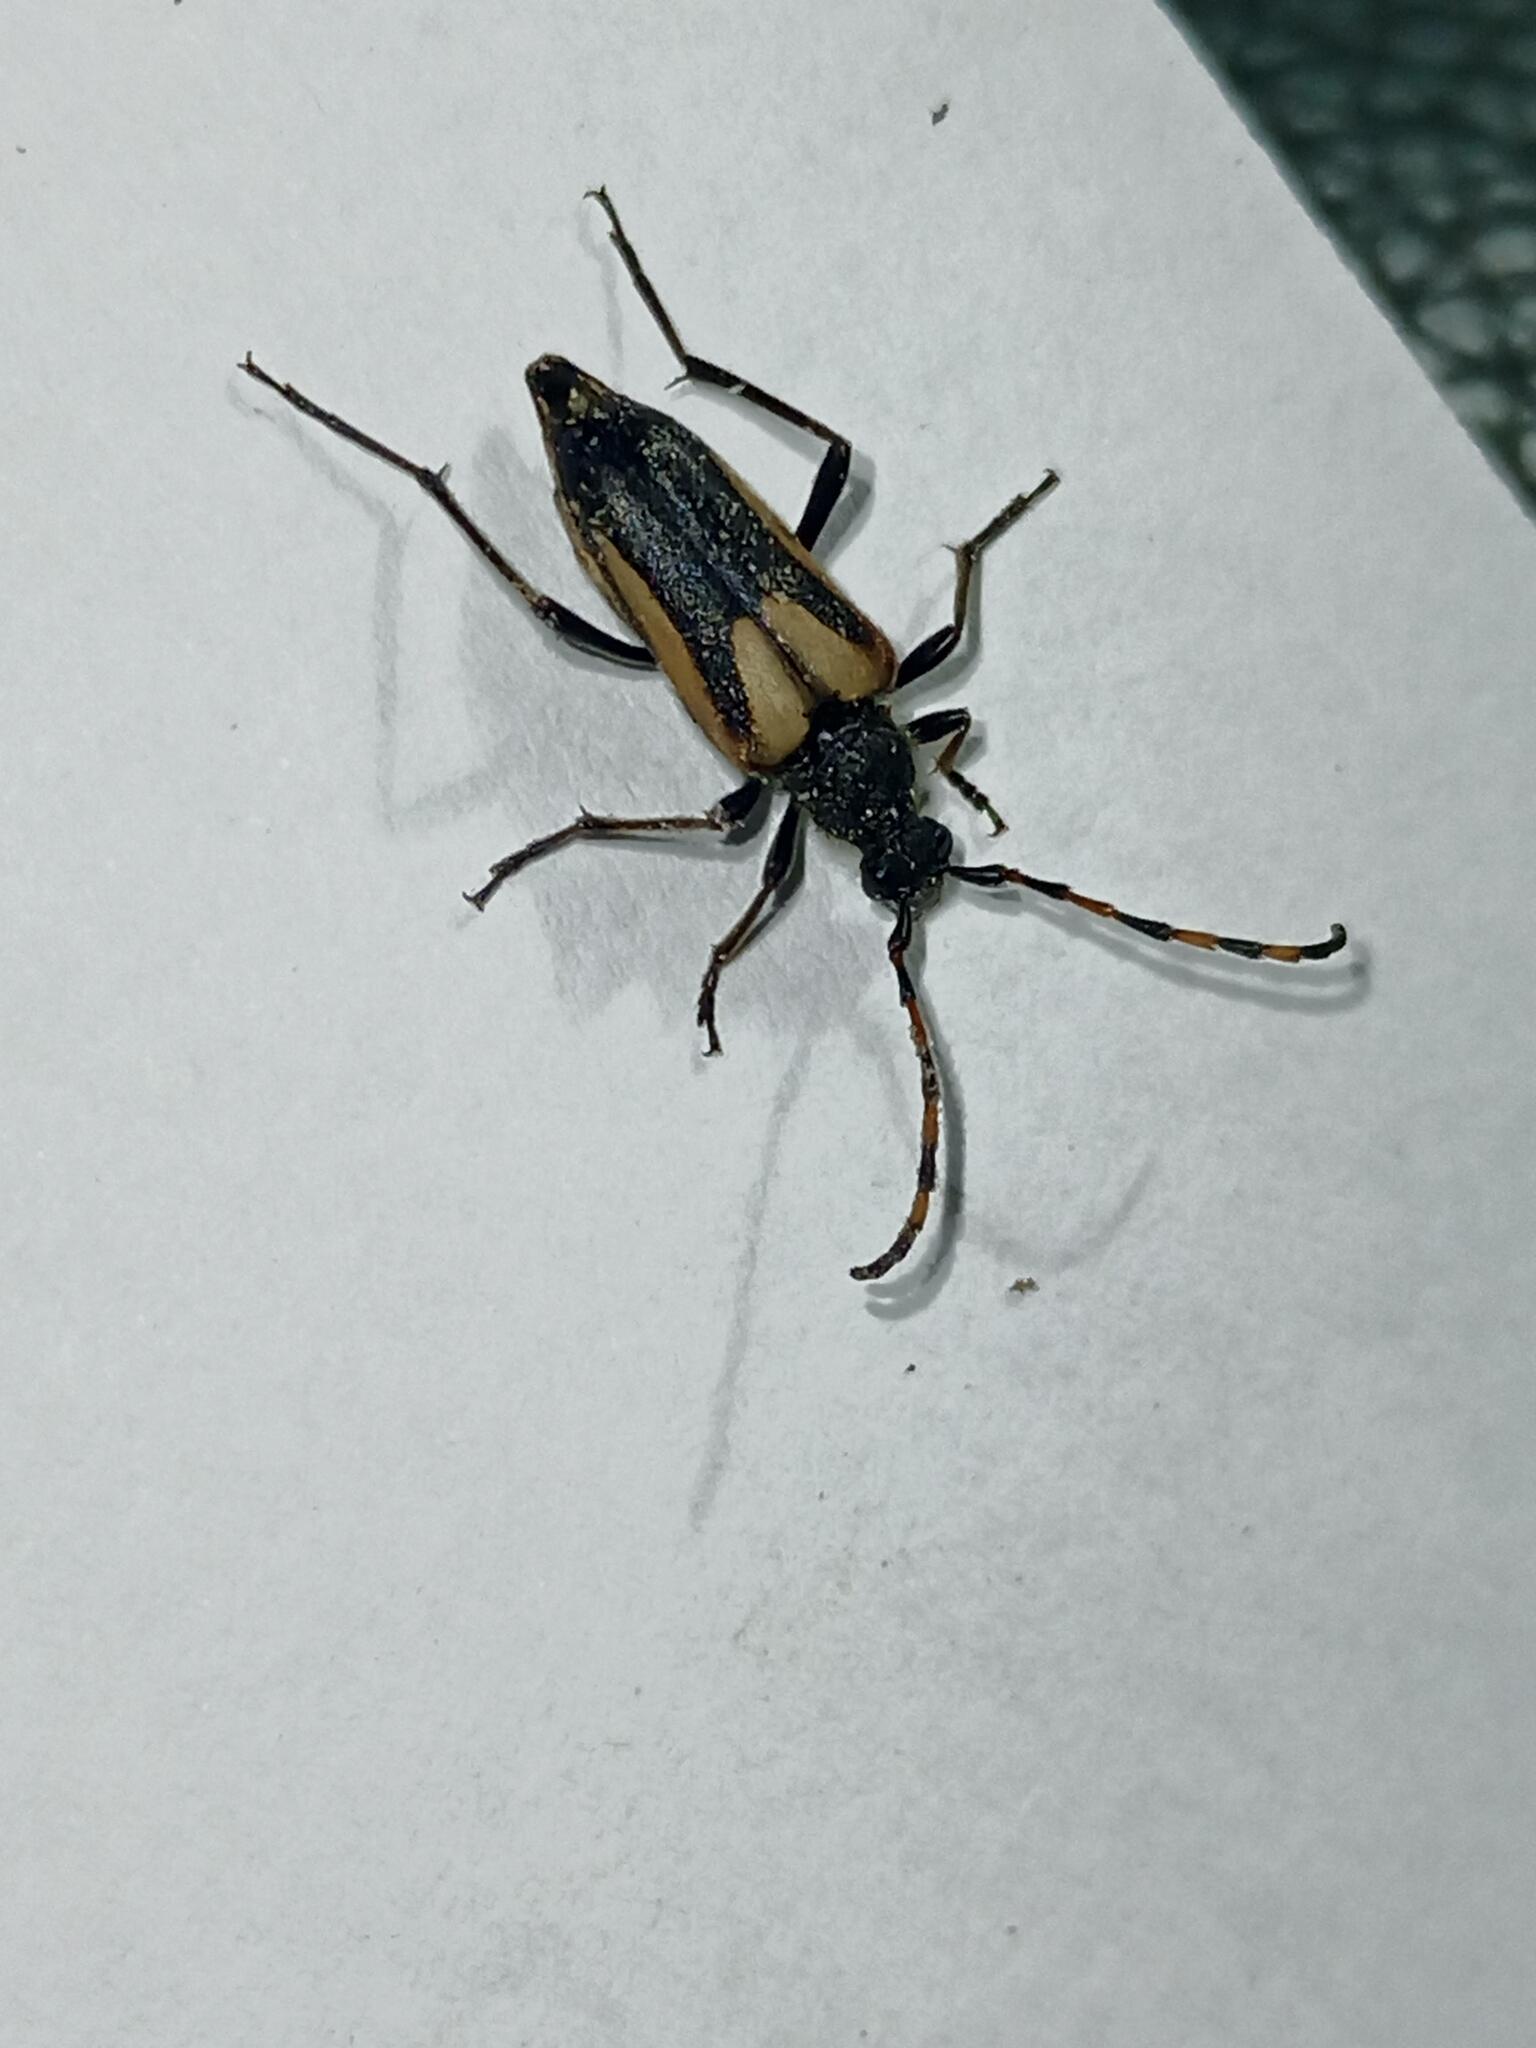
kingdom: Animalia
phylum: Arthropoda
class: Insecta
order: Coleoptera
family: Cerambycidae
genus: Stictoleptura
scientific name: Stictoleptura stragulata
